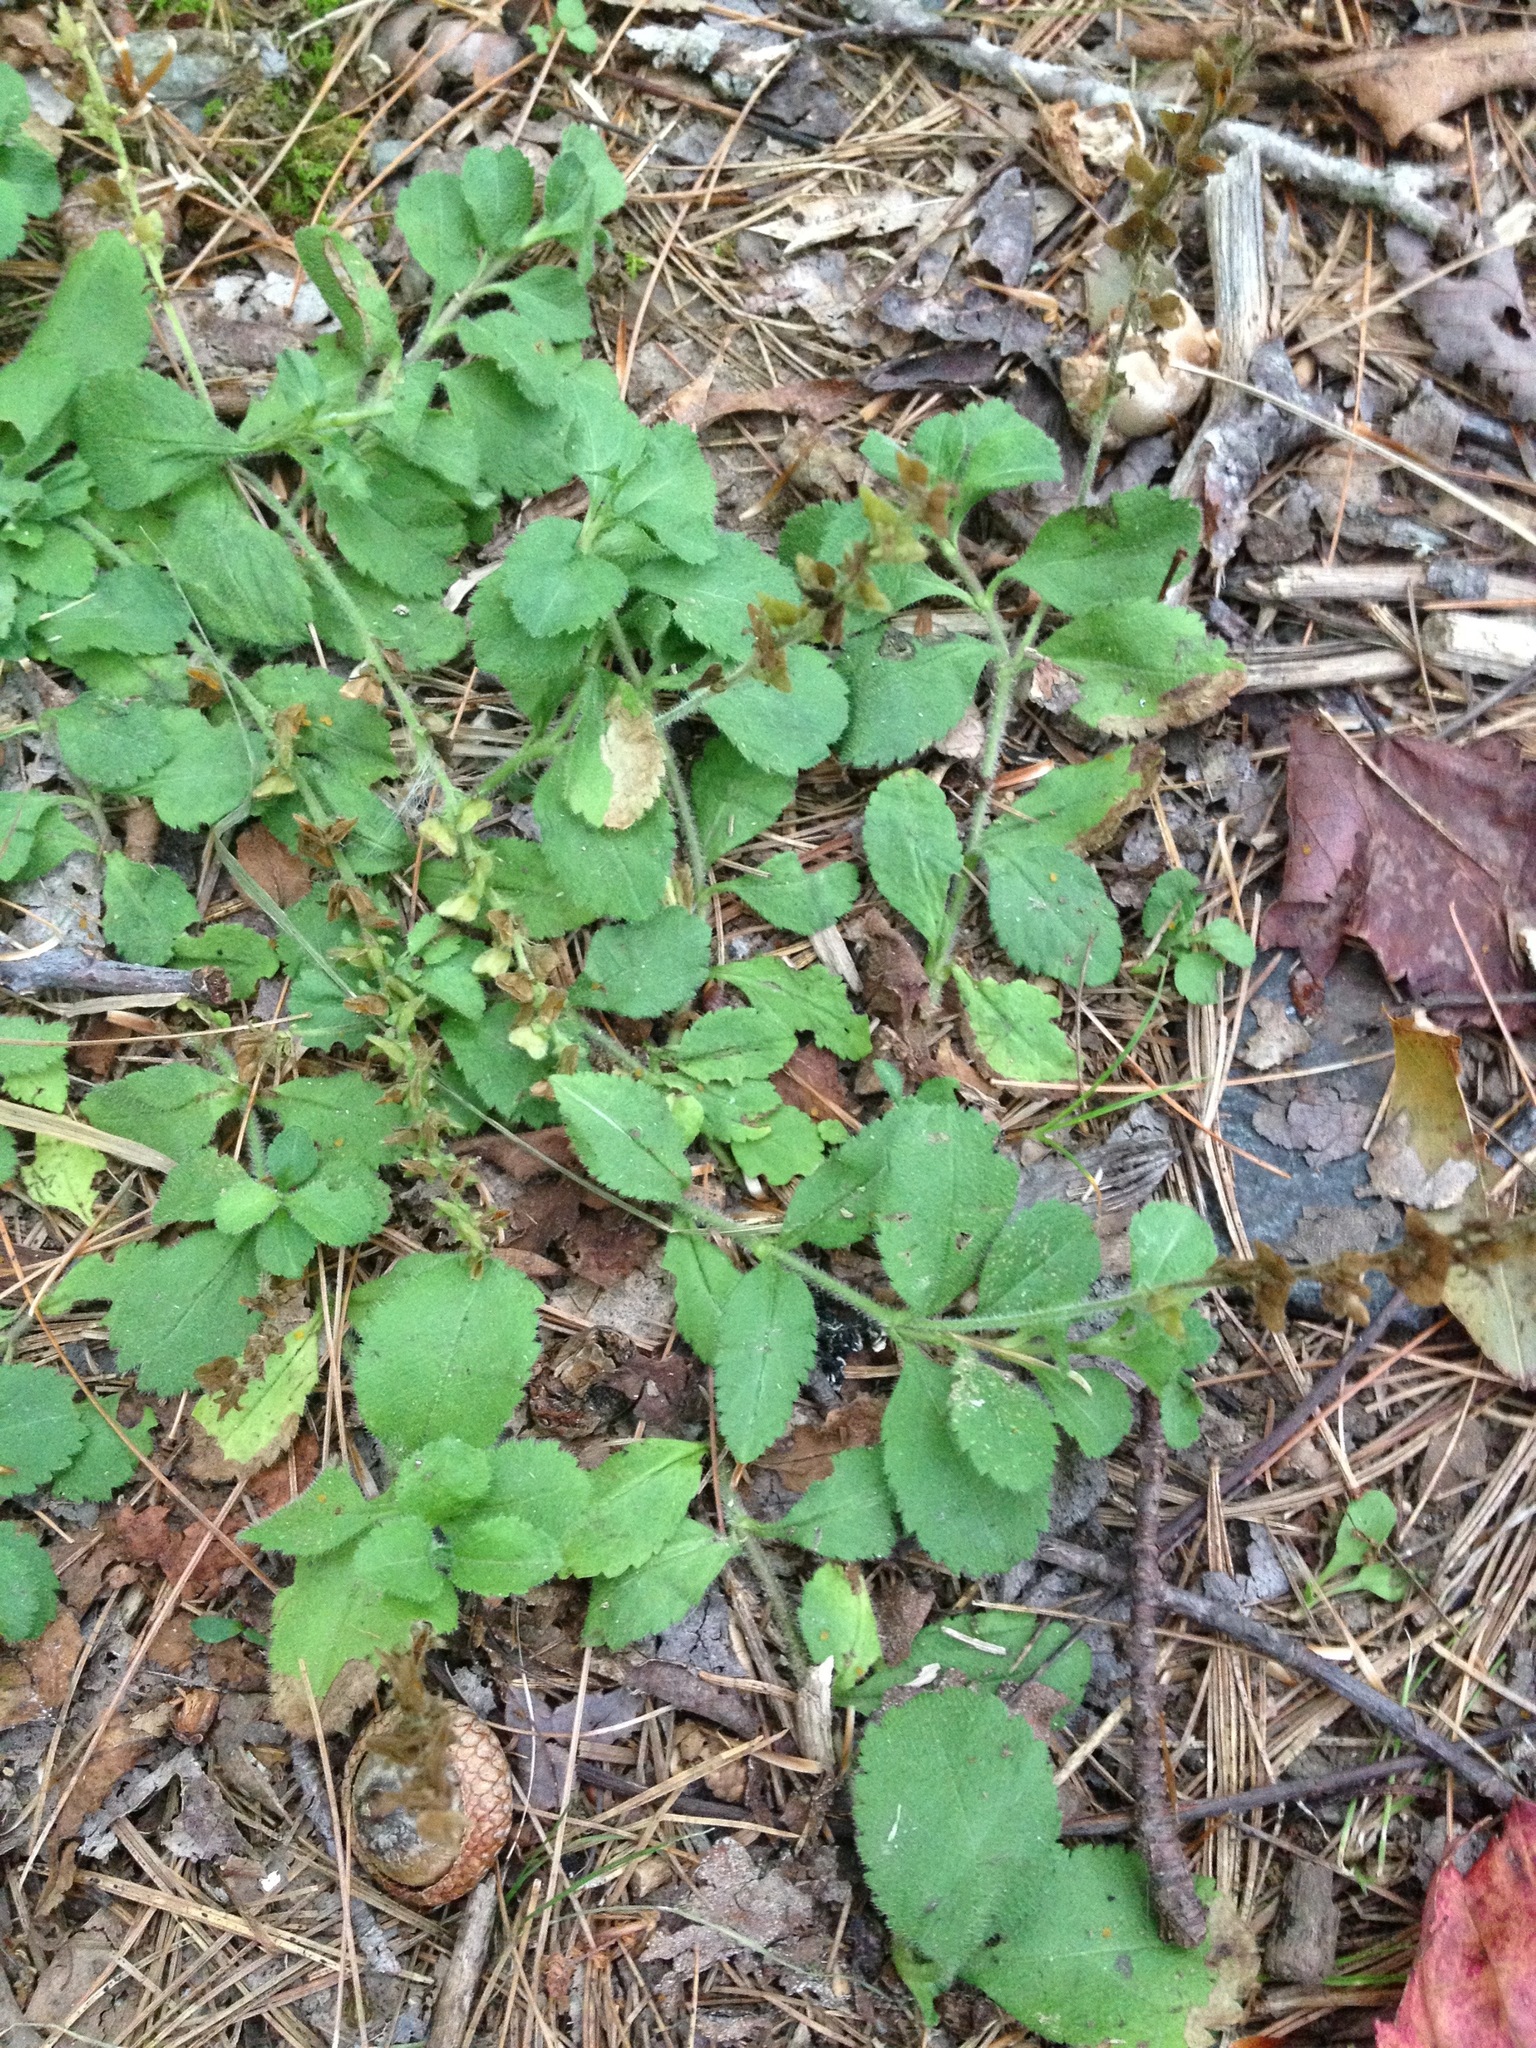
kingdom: Plantae
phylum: Tracheophyta
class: Magnoliopsida
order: Lamiales
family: Plantaginaceae
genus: Veronica
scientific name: Veronica officinalis
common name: Common speedwell
